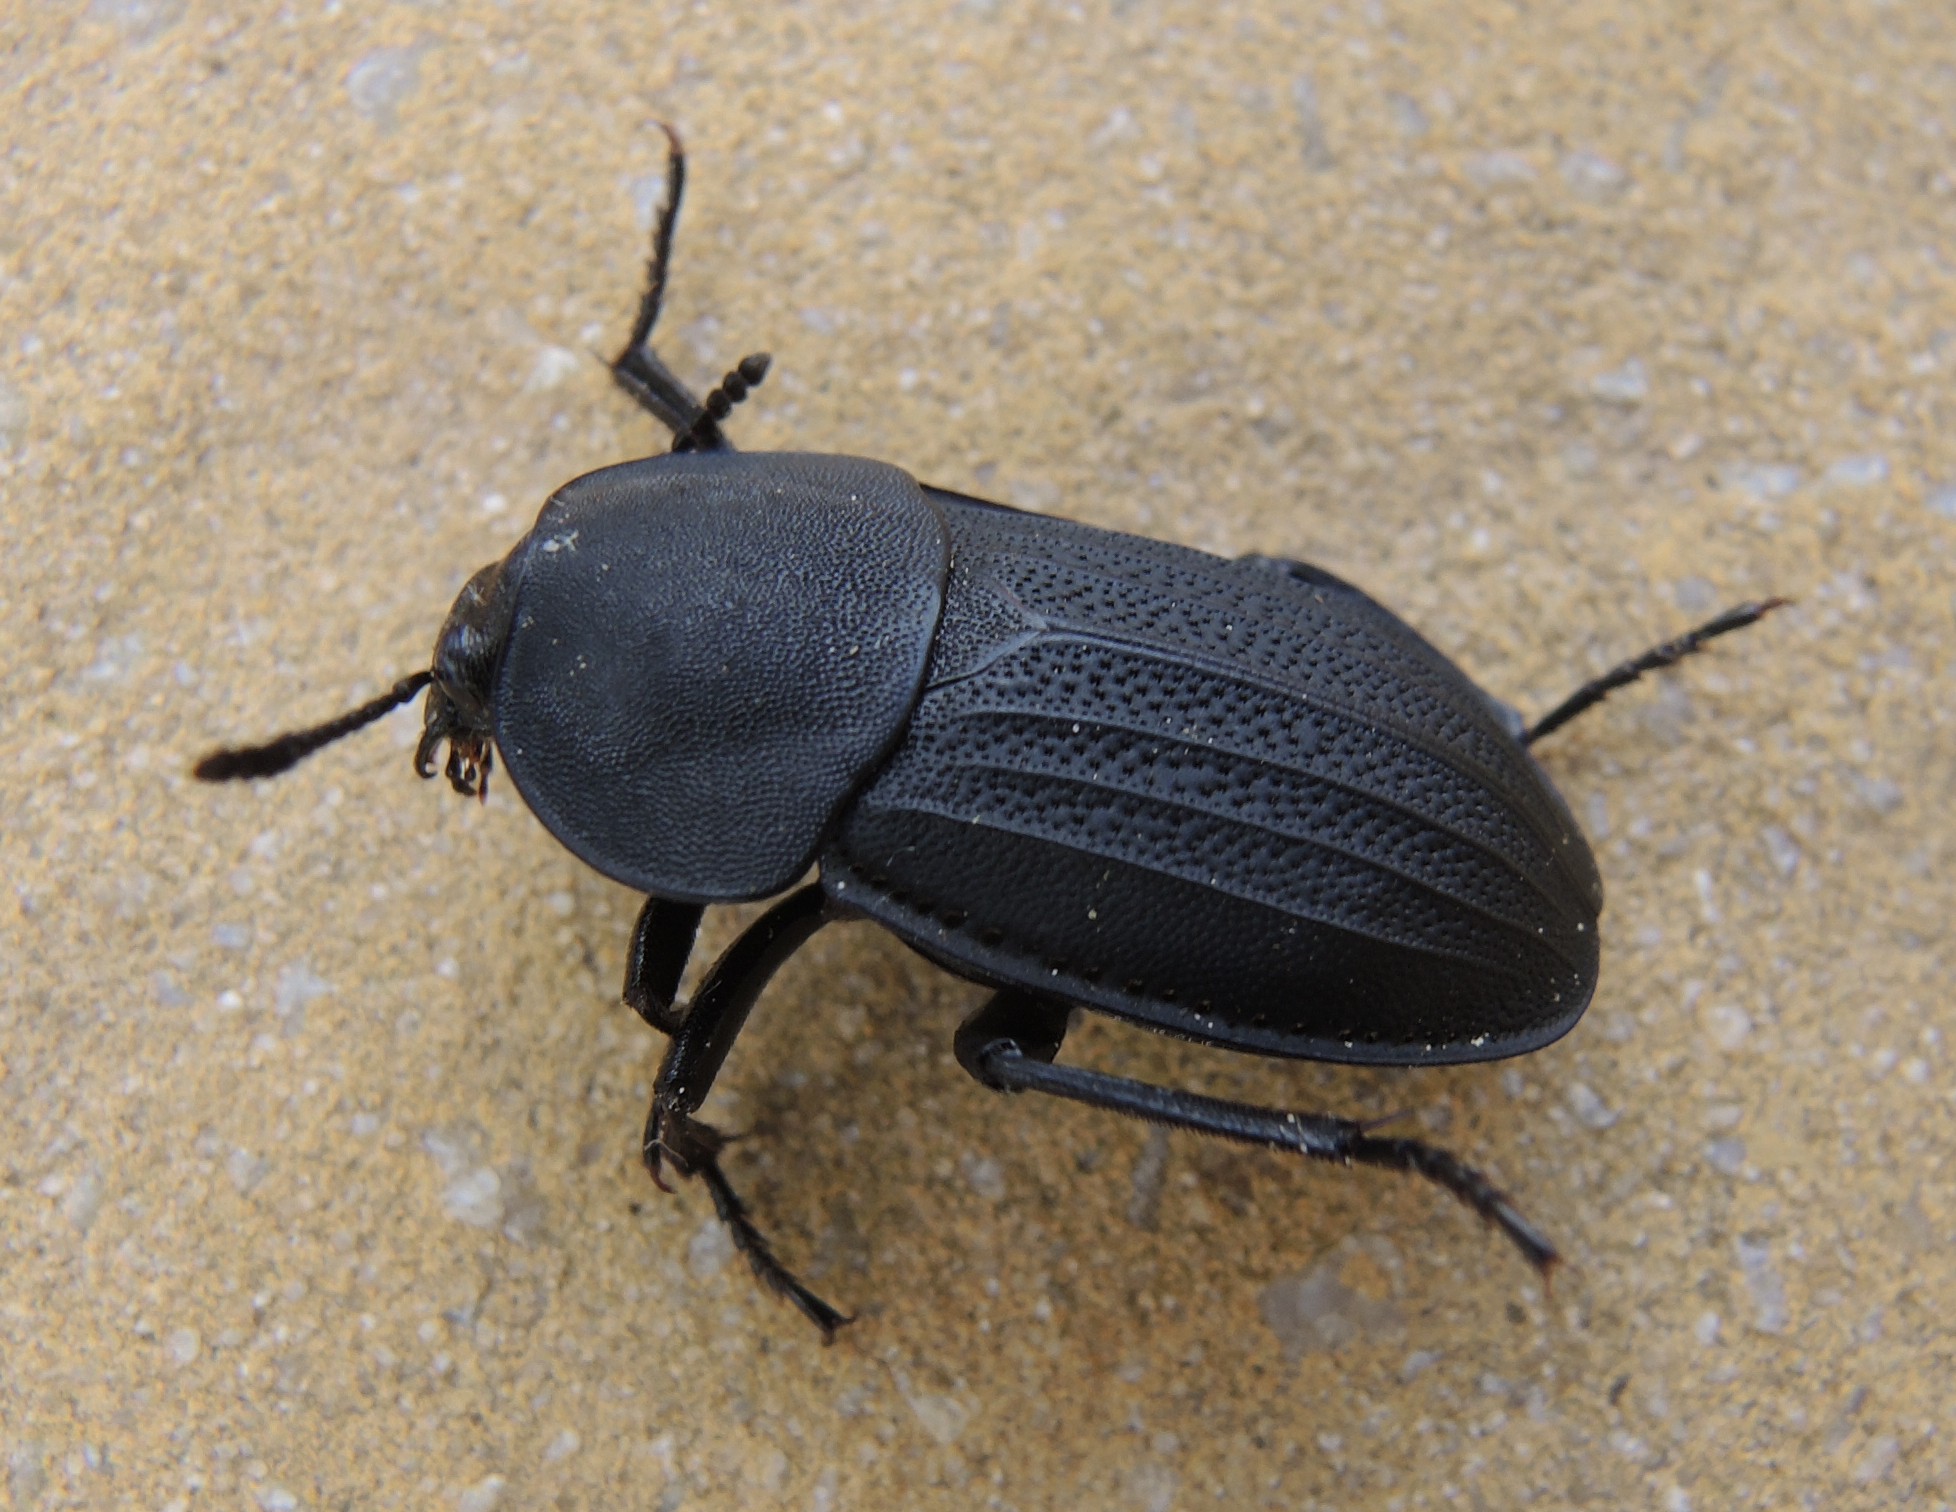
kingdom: Animalia
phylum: Arthropoda
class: Insecta
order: Coleoptera
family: Staphylinidae
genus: Silpha
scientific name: Silpha obscura
